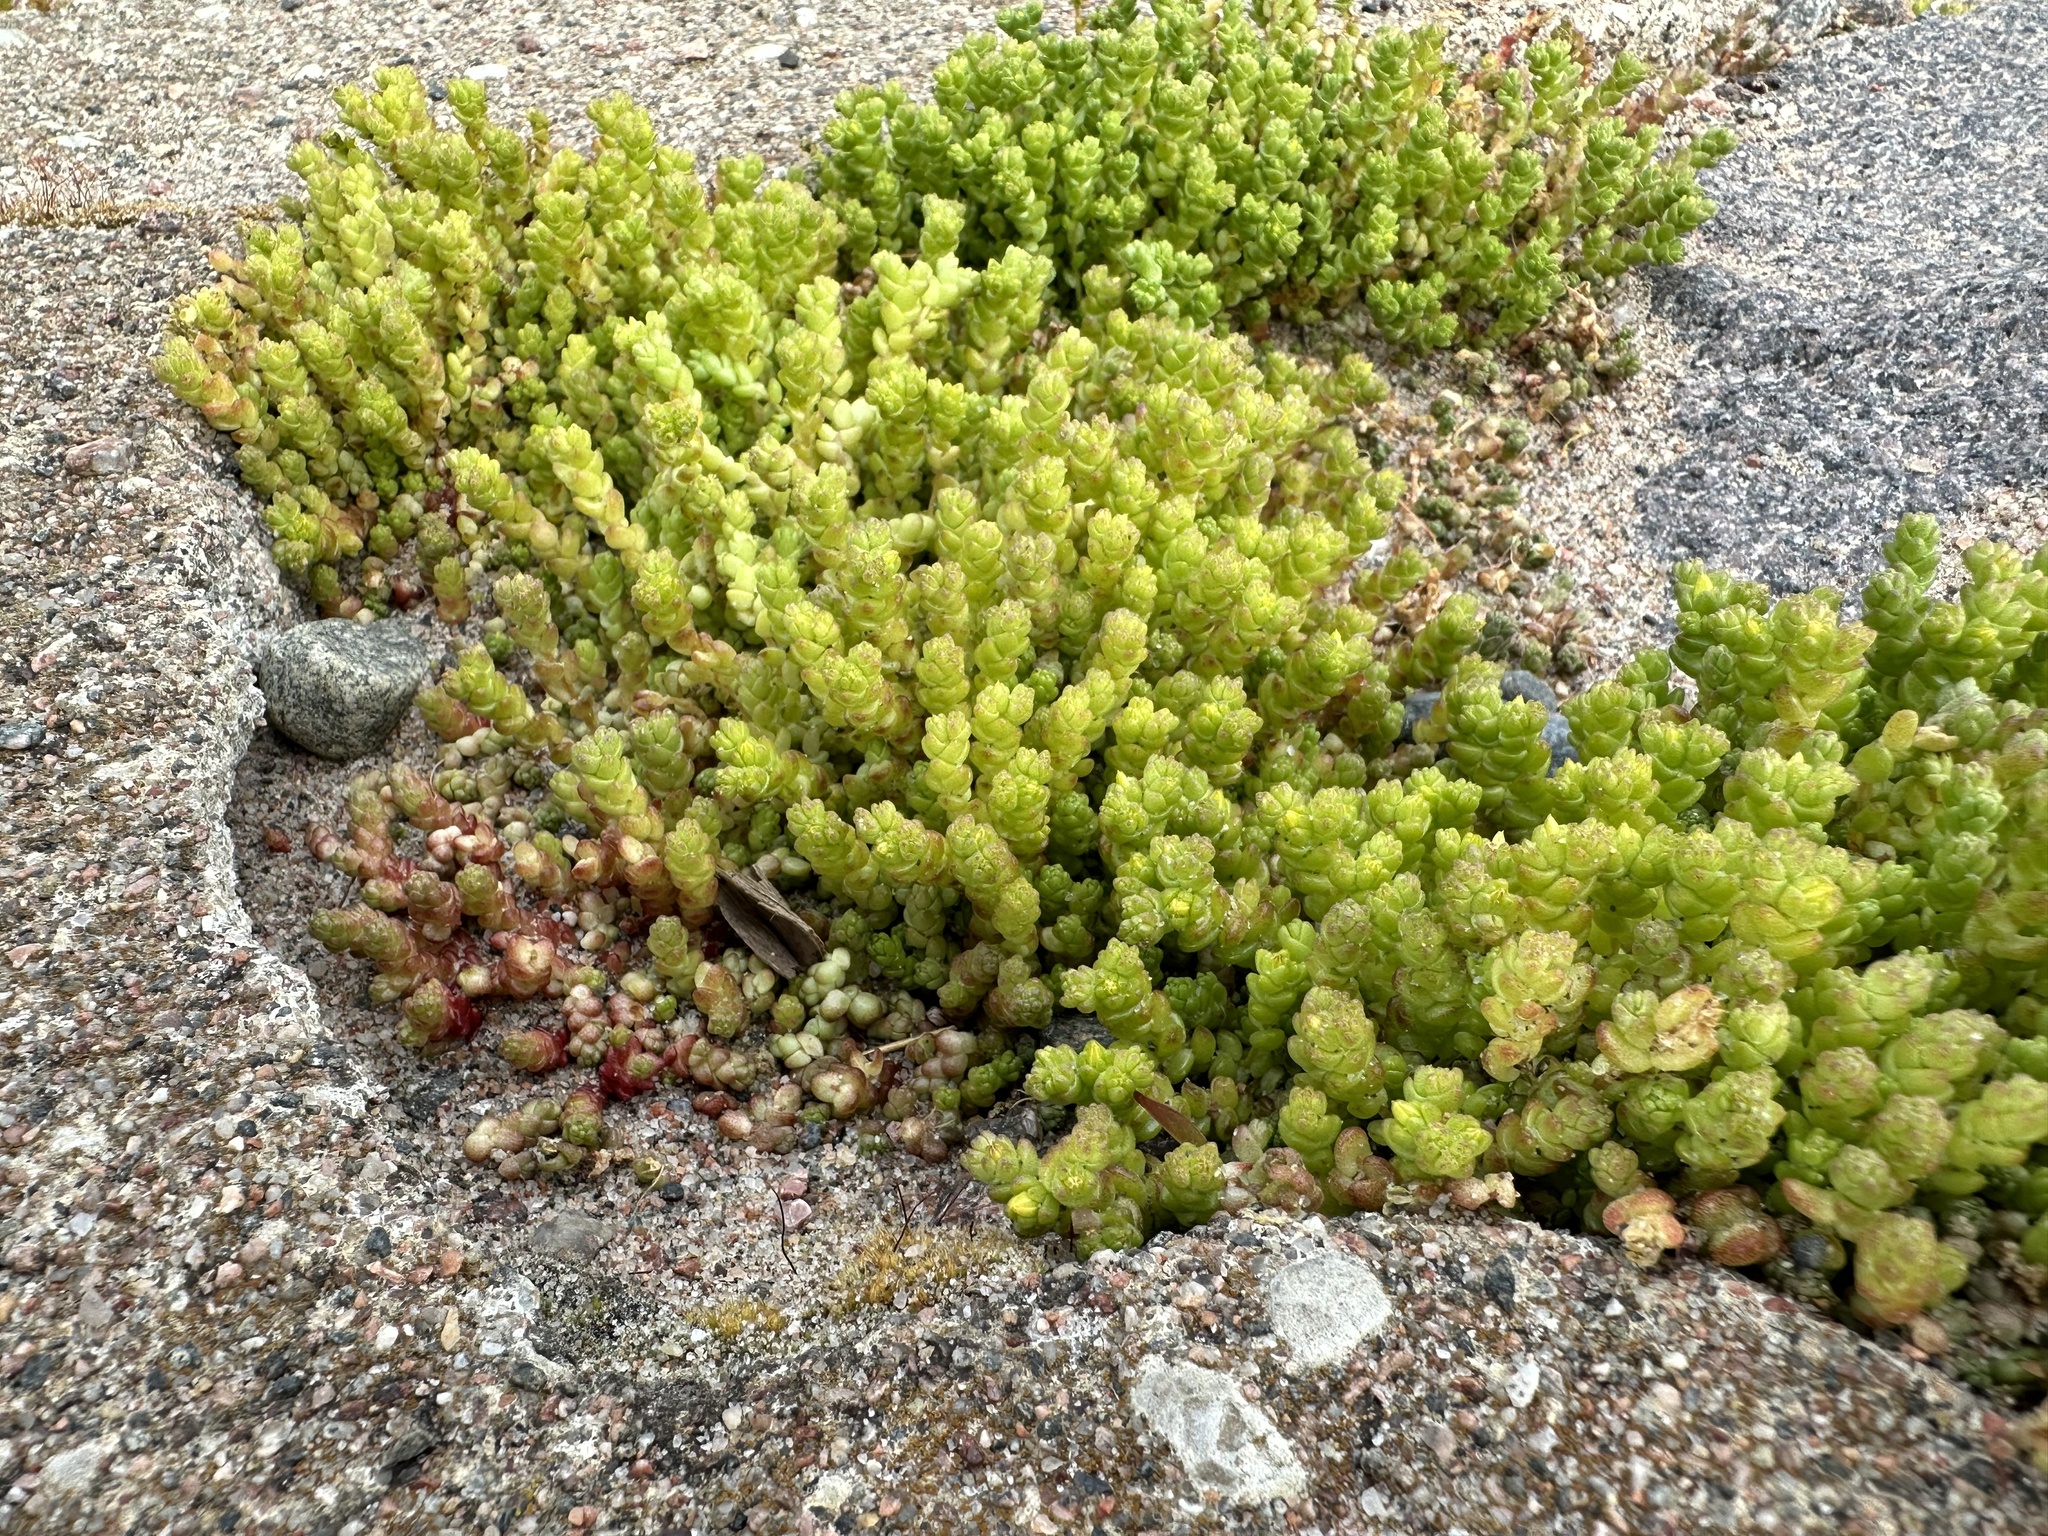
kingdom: Plantae
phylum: Tracheophyta
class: Magnoliopsida
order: Saxifragales
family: Crassulaceae
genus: Sedum
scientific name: Sedum acre
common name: Biting stonecrop
